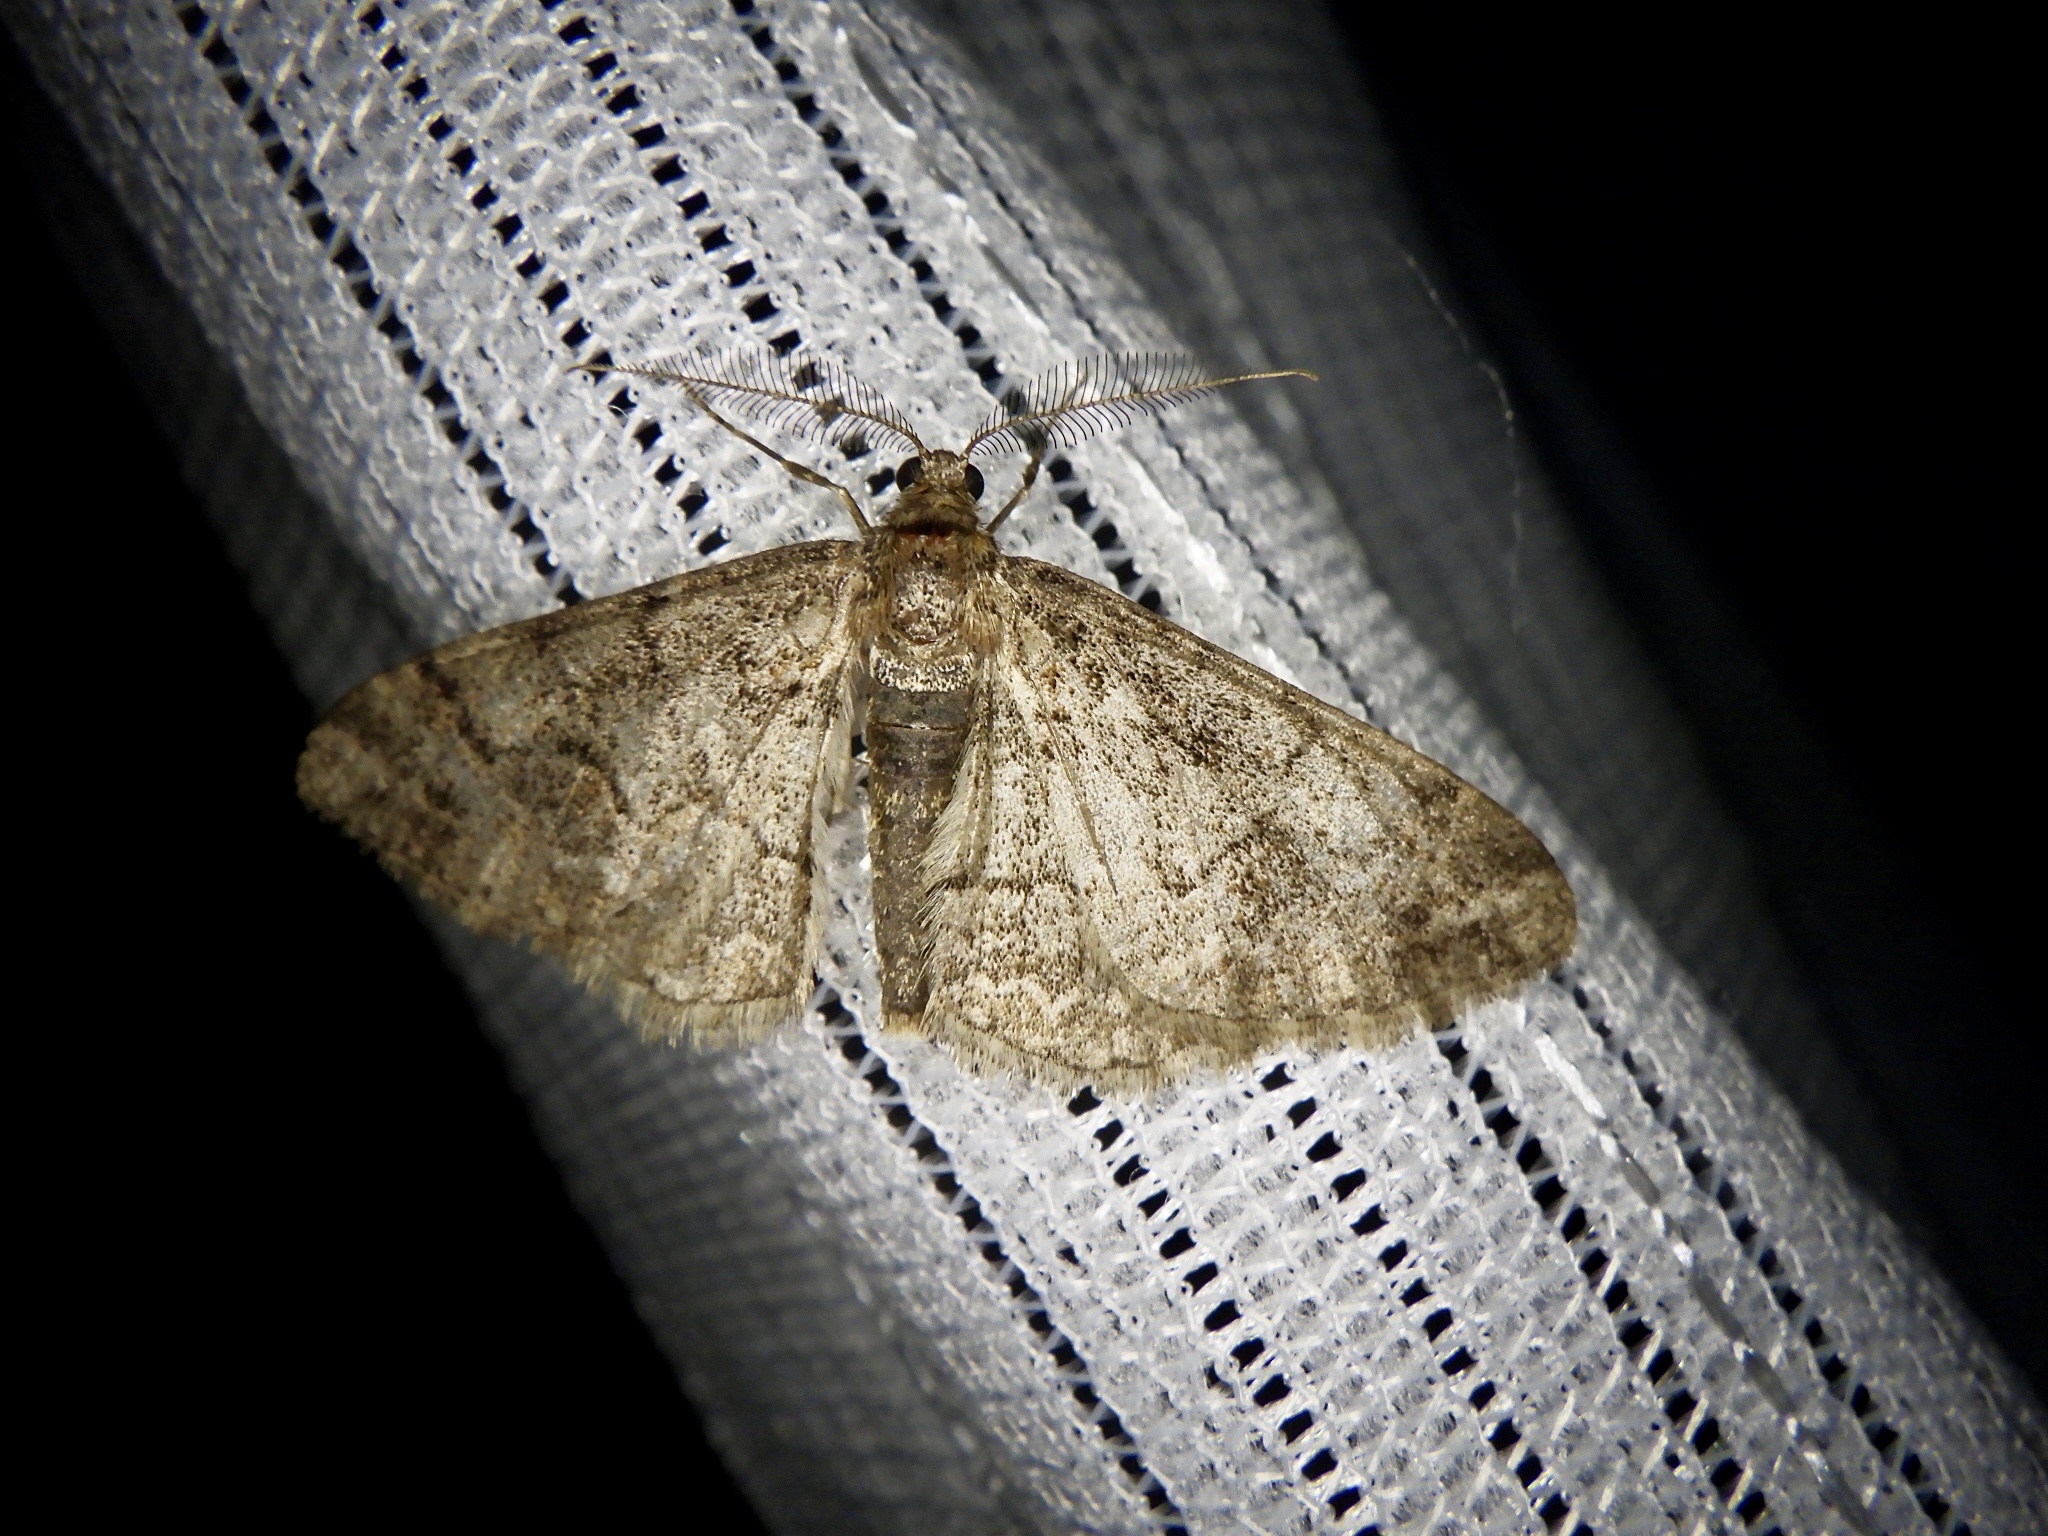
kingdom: Animalia
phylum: Arthropoda
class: Insecta
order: Lepidoptera
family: Geometridae
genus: Pseuderannis
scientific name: Pseuderannis lomozemia
